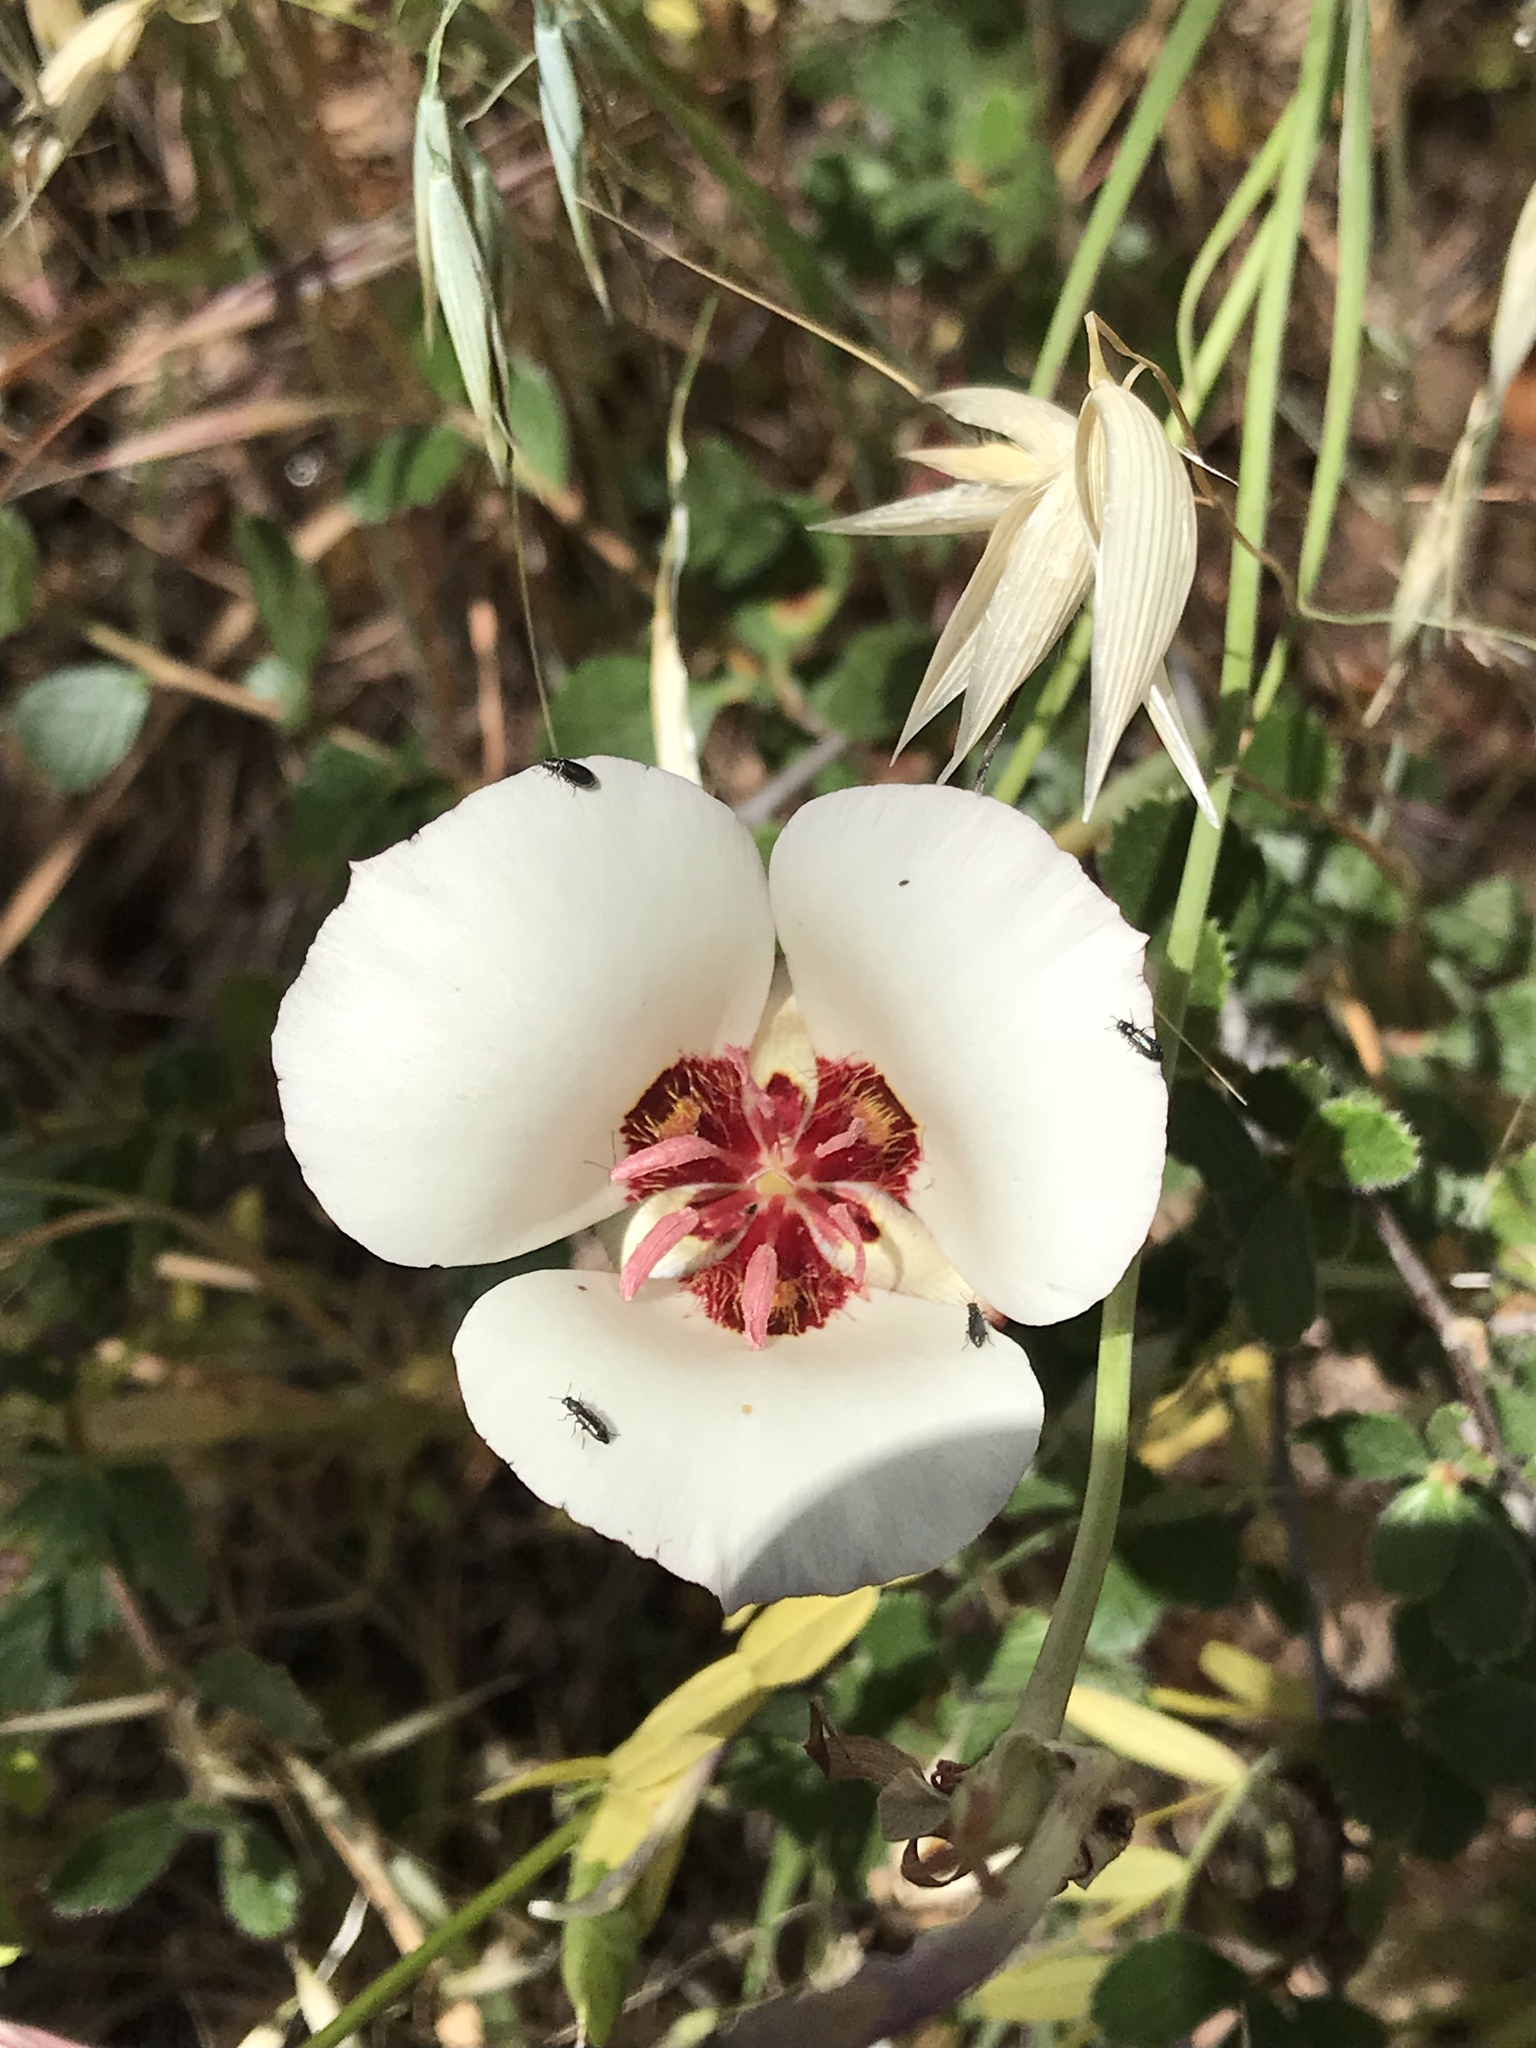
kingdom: Plantae
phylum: Tracheophyta
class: Liliopsida
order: Liliales
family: Liliaceae
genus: Calochortus
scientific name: Calochortus simulans
